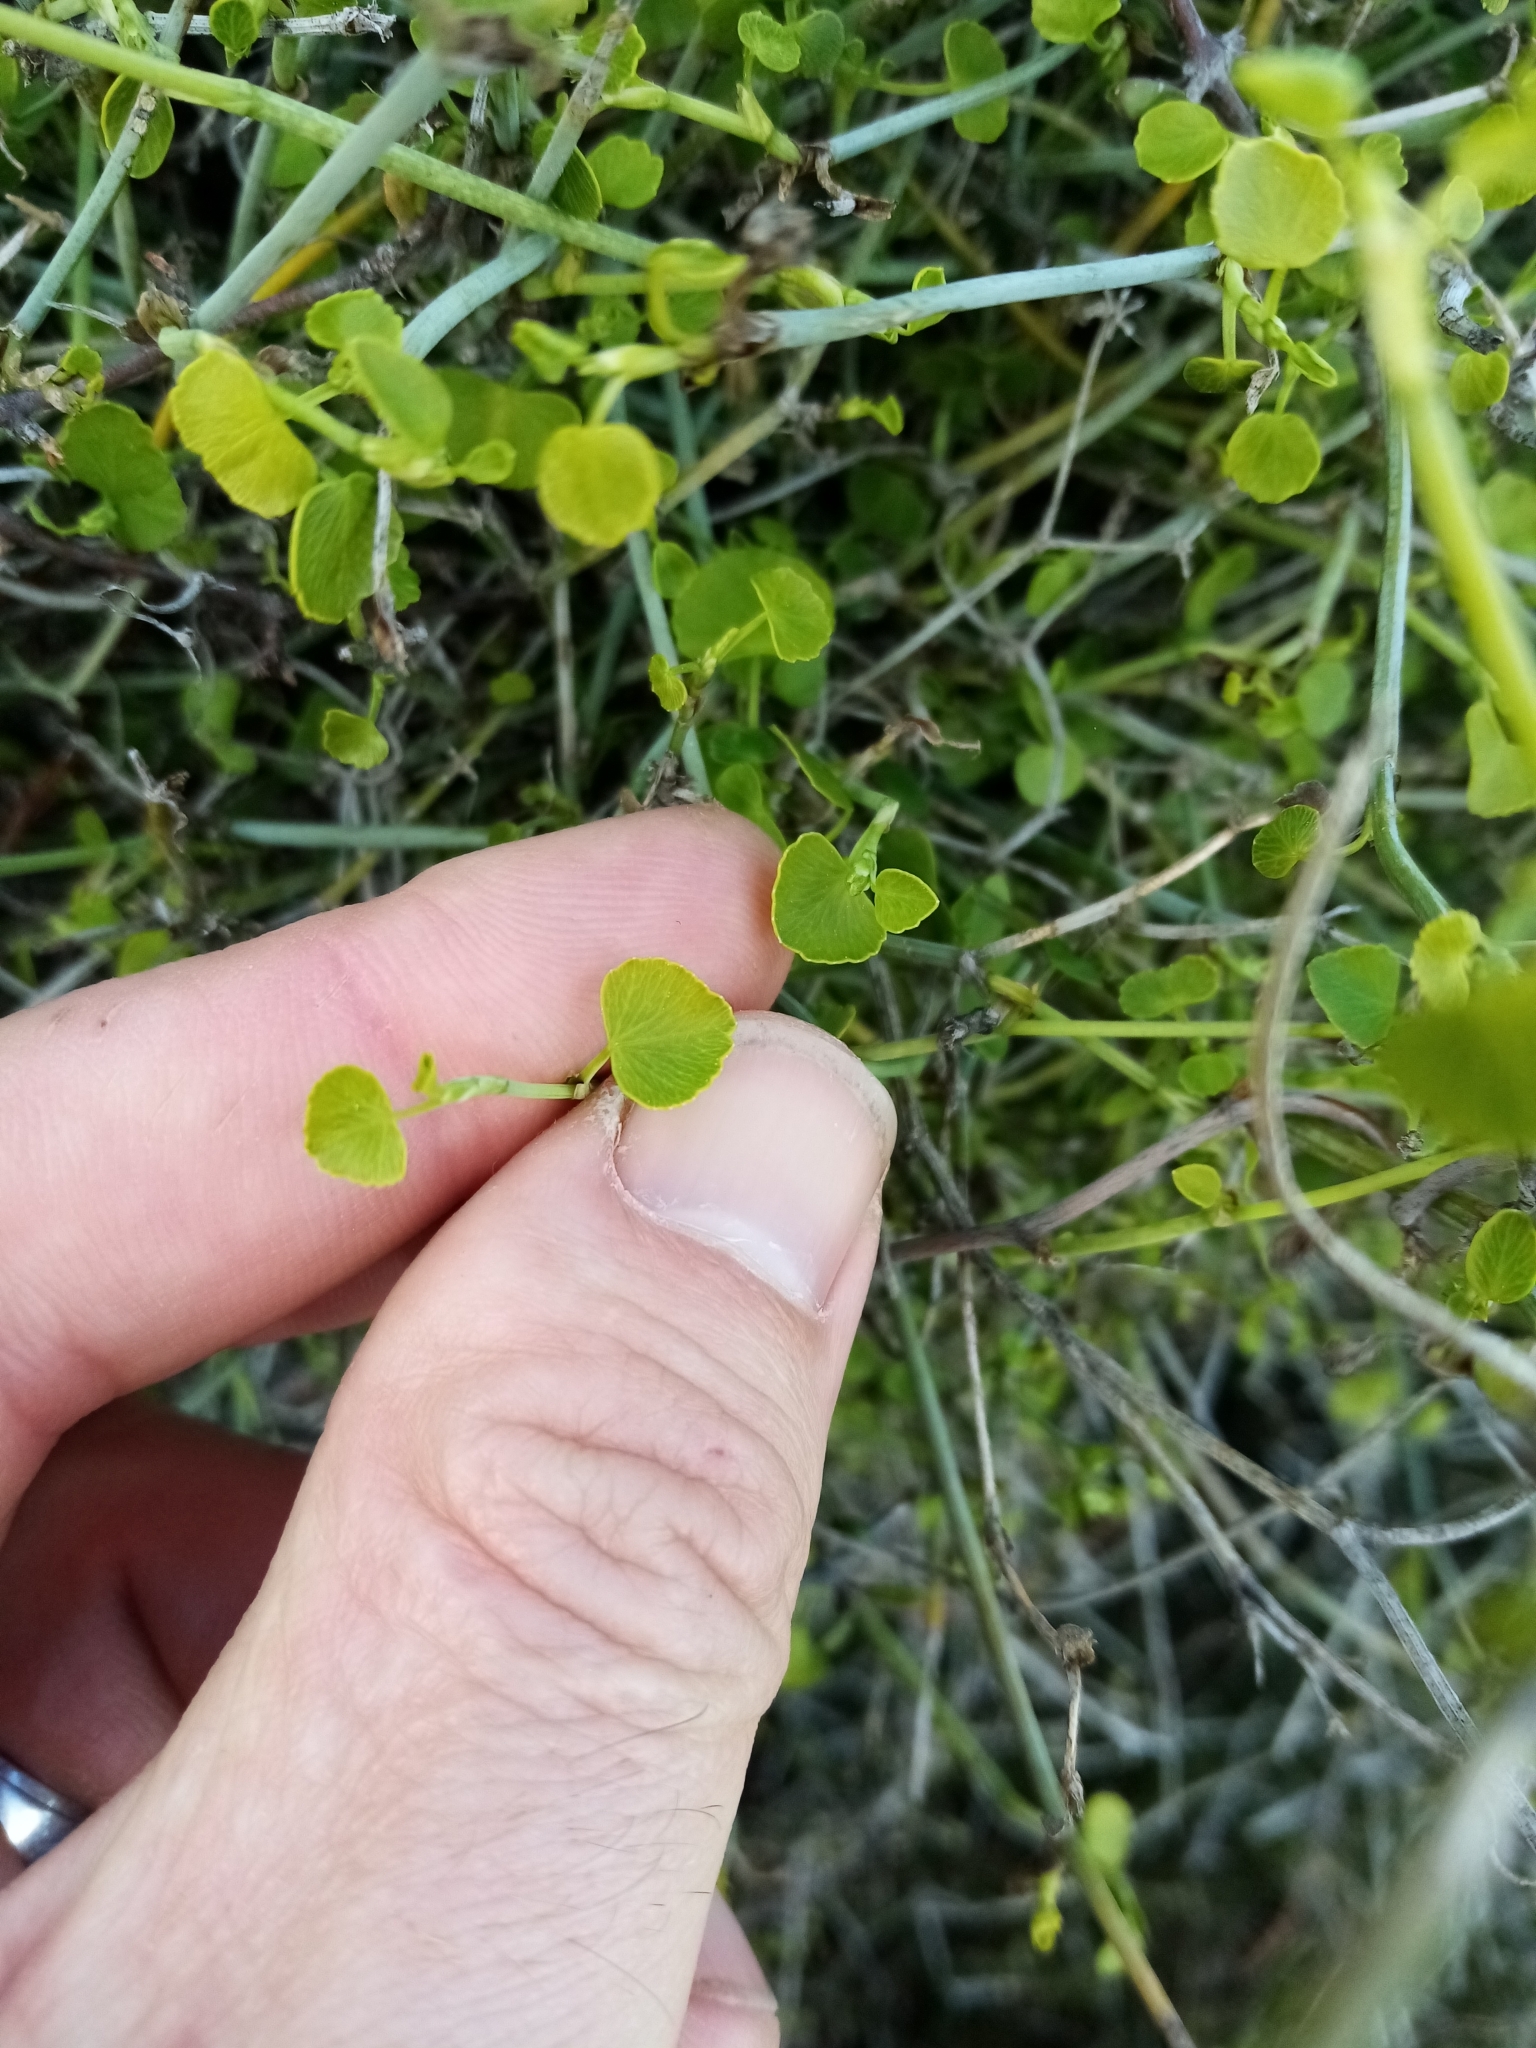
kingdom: Plantae
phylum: Tracheophyta
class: Magnoliopsida
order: Apiales
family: Apiaceae
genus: Scandia
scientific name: Scandia geniculata
